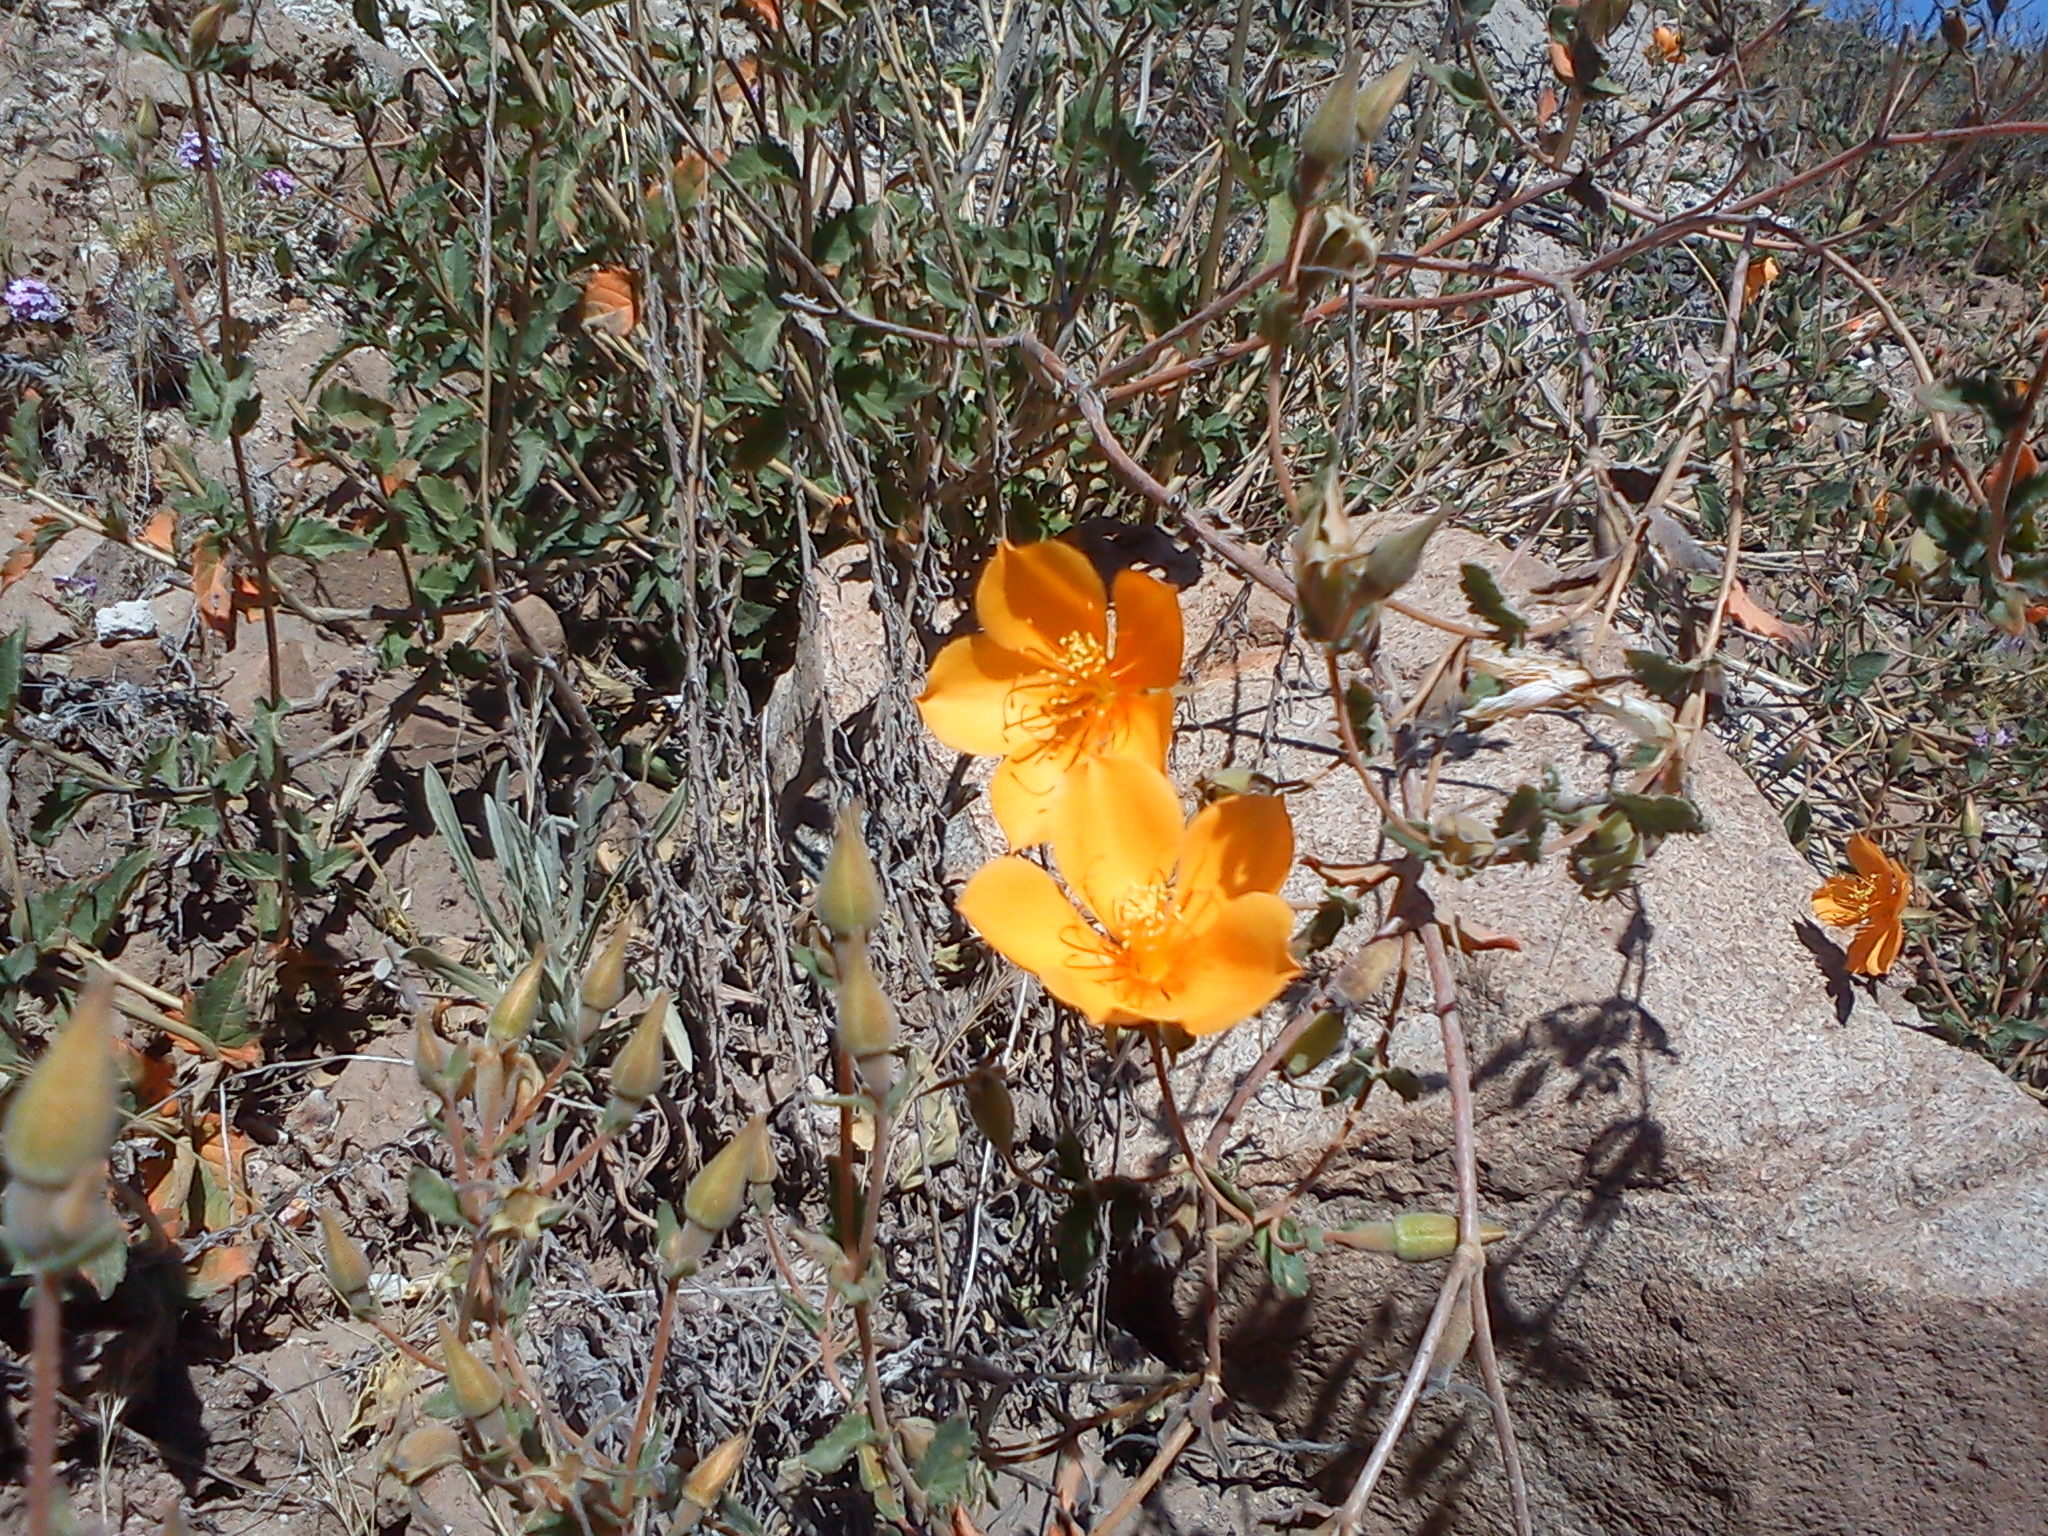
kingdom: Plantae
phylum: Tracheophyta
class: Magnoliopsida
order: Cornales
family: Loasaceae
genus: Mentzelia
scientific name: Mentzelia scabra
